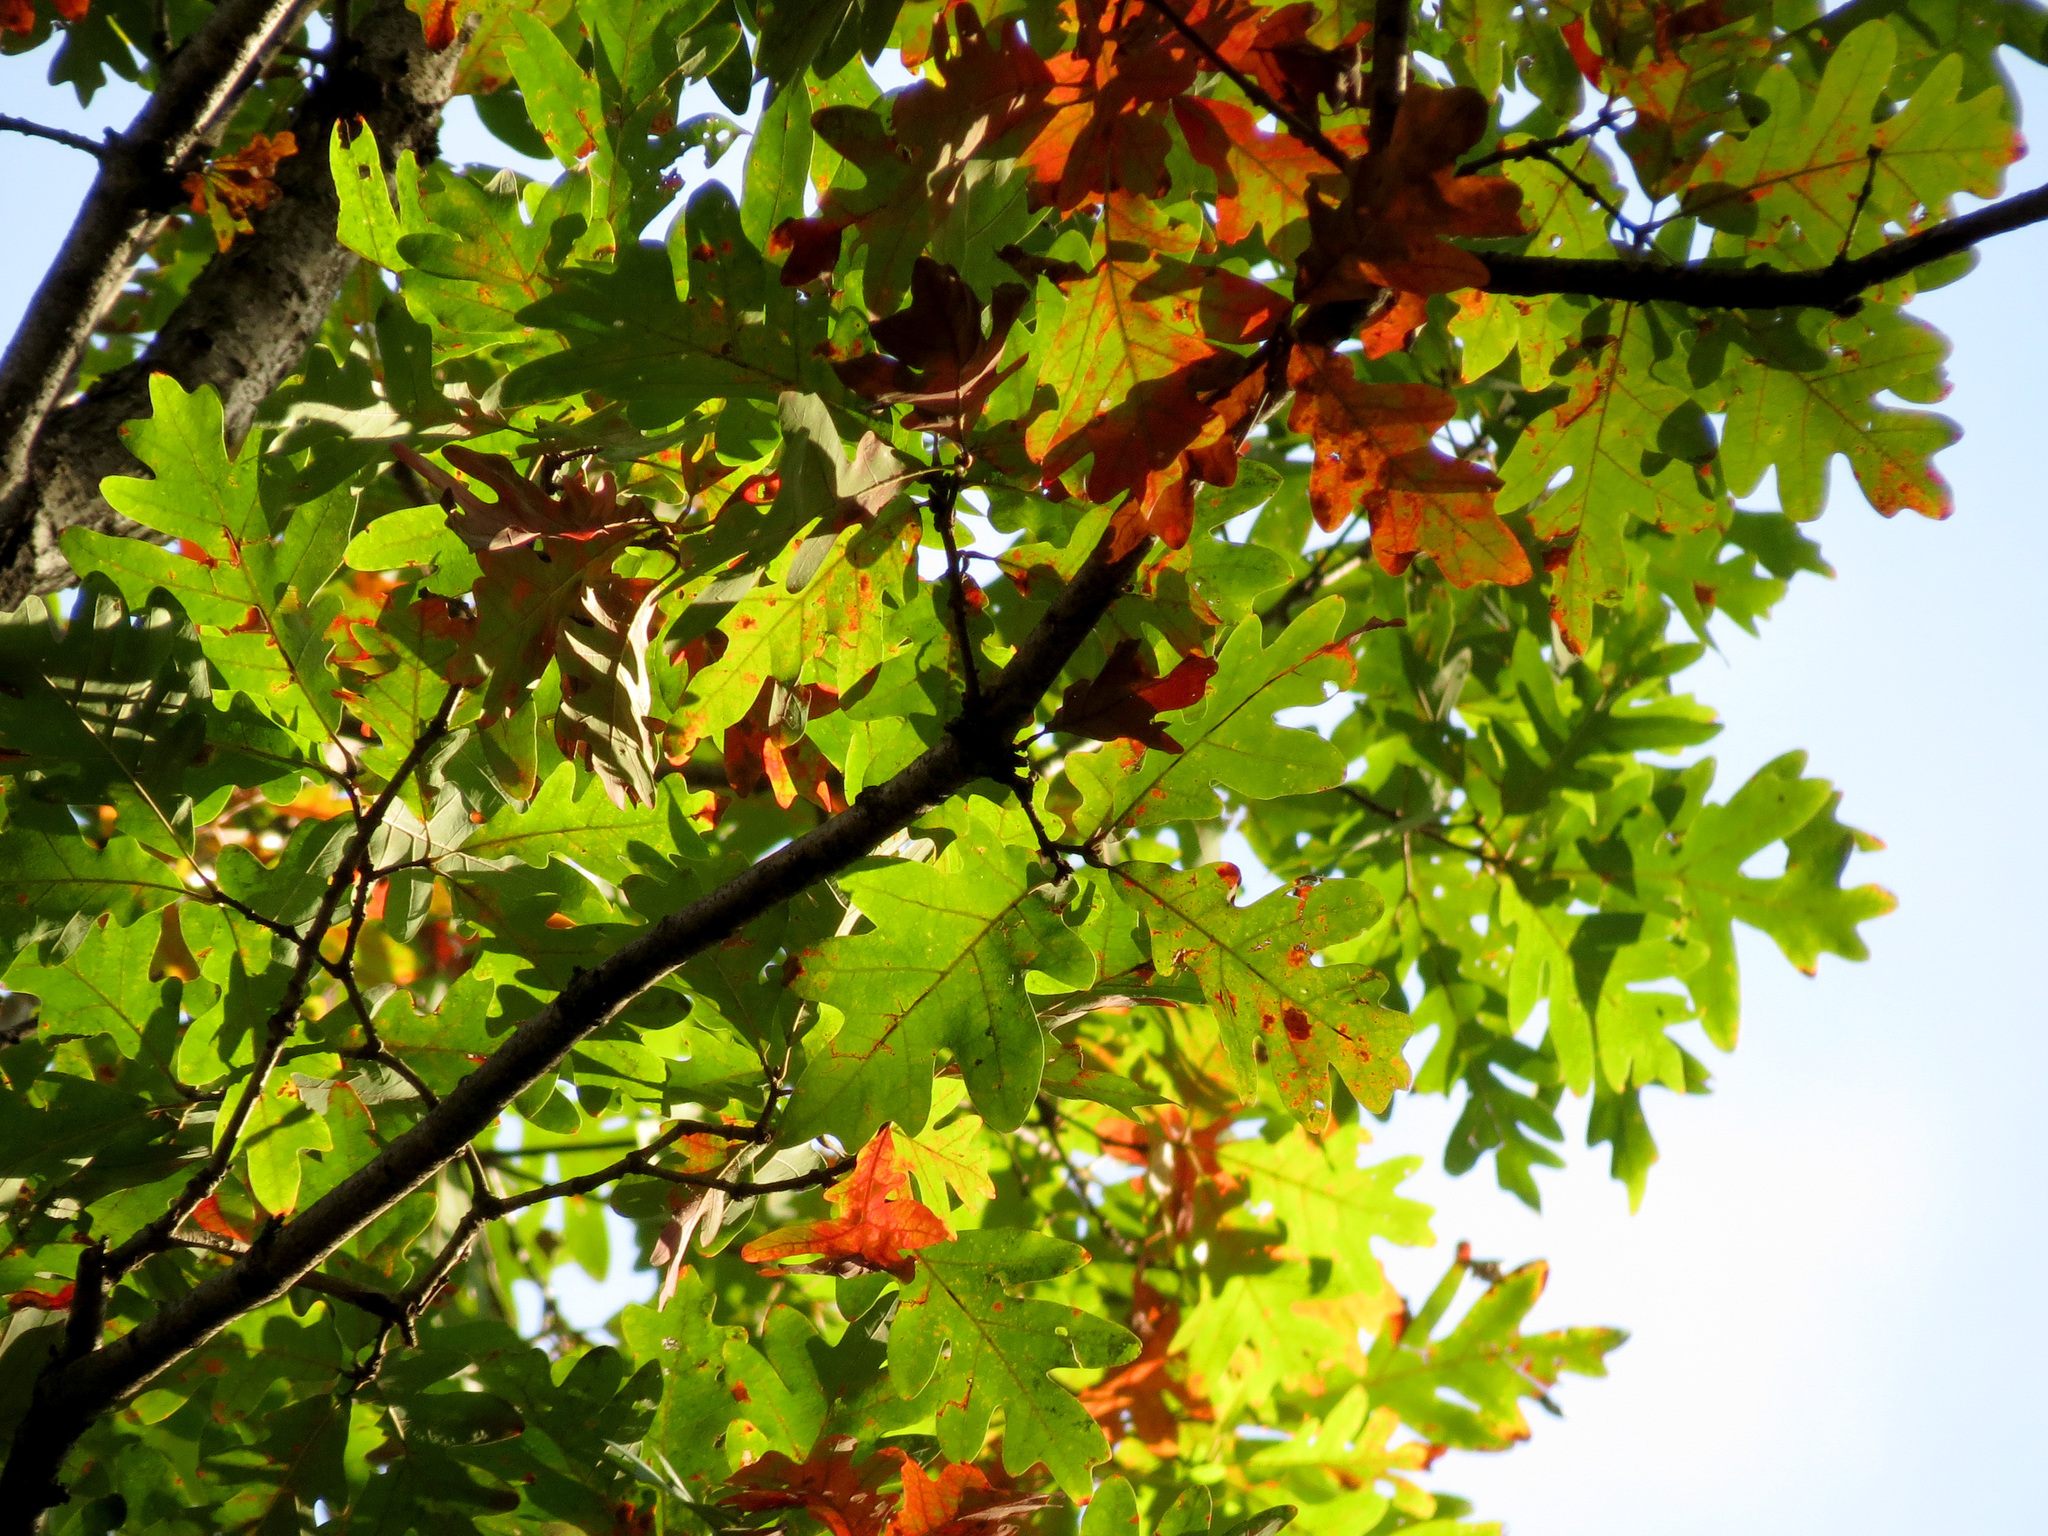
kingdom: Plantae
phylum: Tracheophyta
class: Magnoliopsida
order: Fagales
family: Fagaceae
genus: Quercus
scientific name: Quercus alba
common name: White oak
